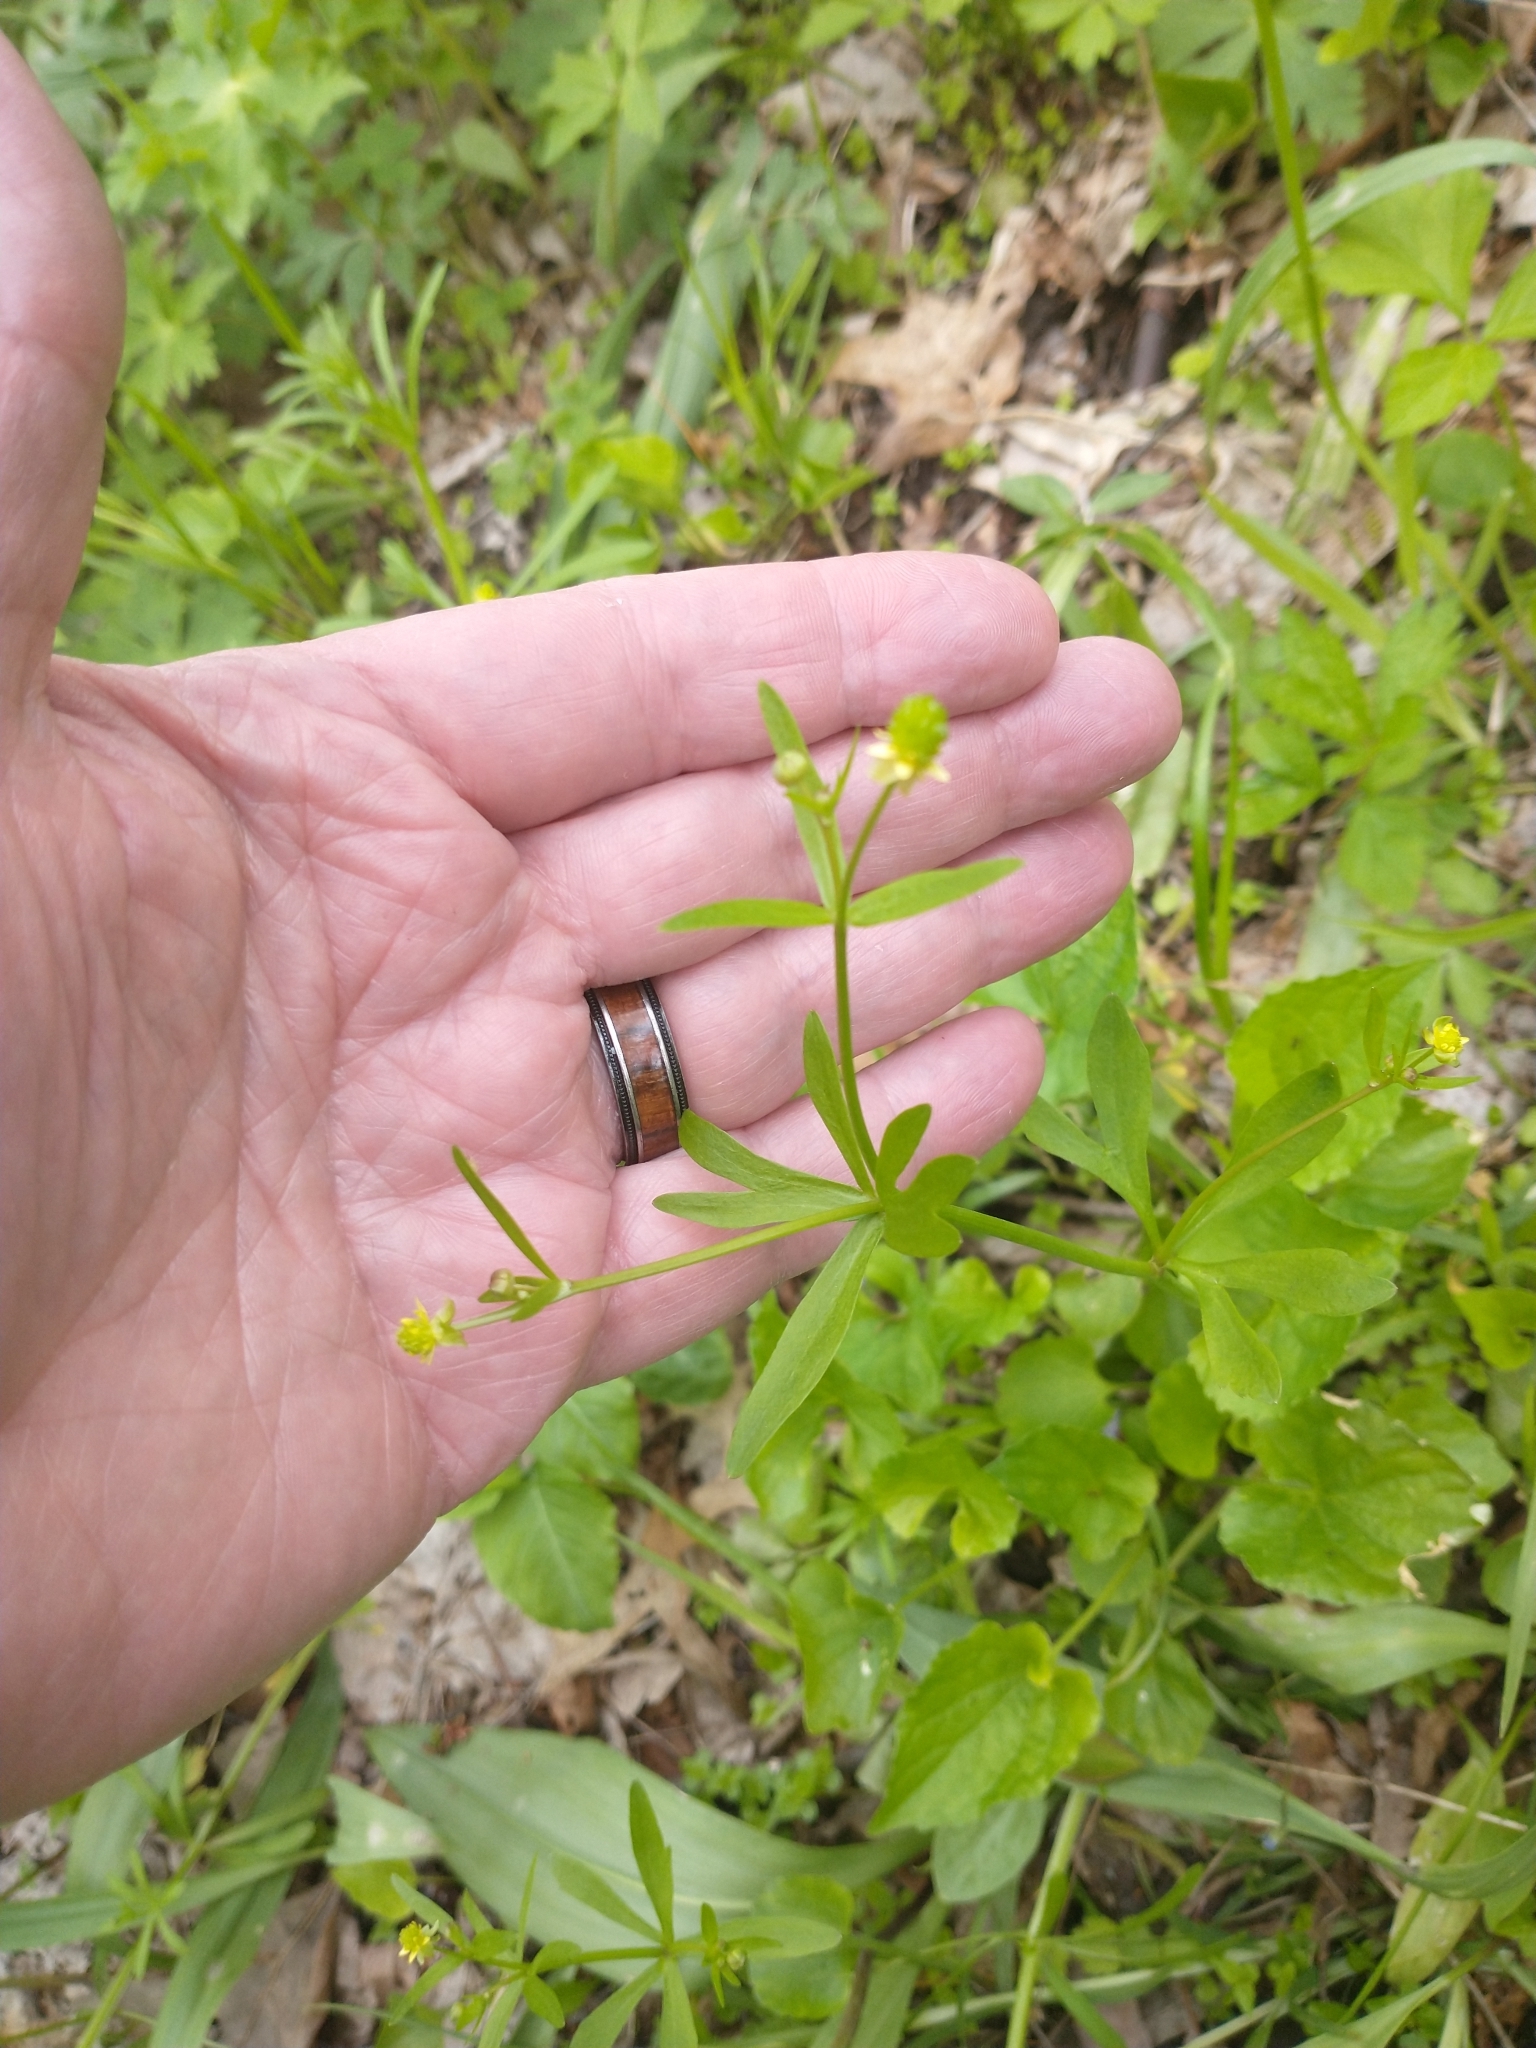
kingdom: Plantae
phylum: Tracheophyta
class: Magnoliopsida
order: Ranunculales
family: Ranunculaceae
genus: Ranunculus
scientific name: Ranunculus abortivus
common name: Early wood buttercup
